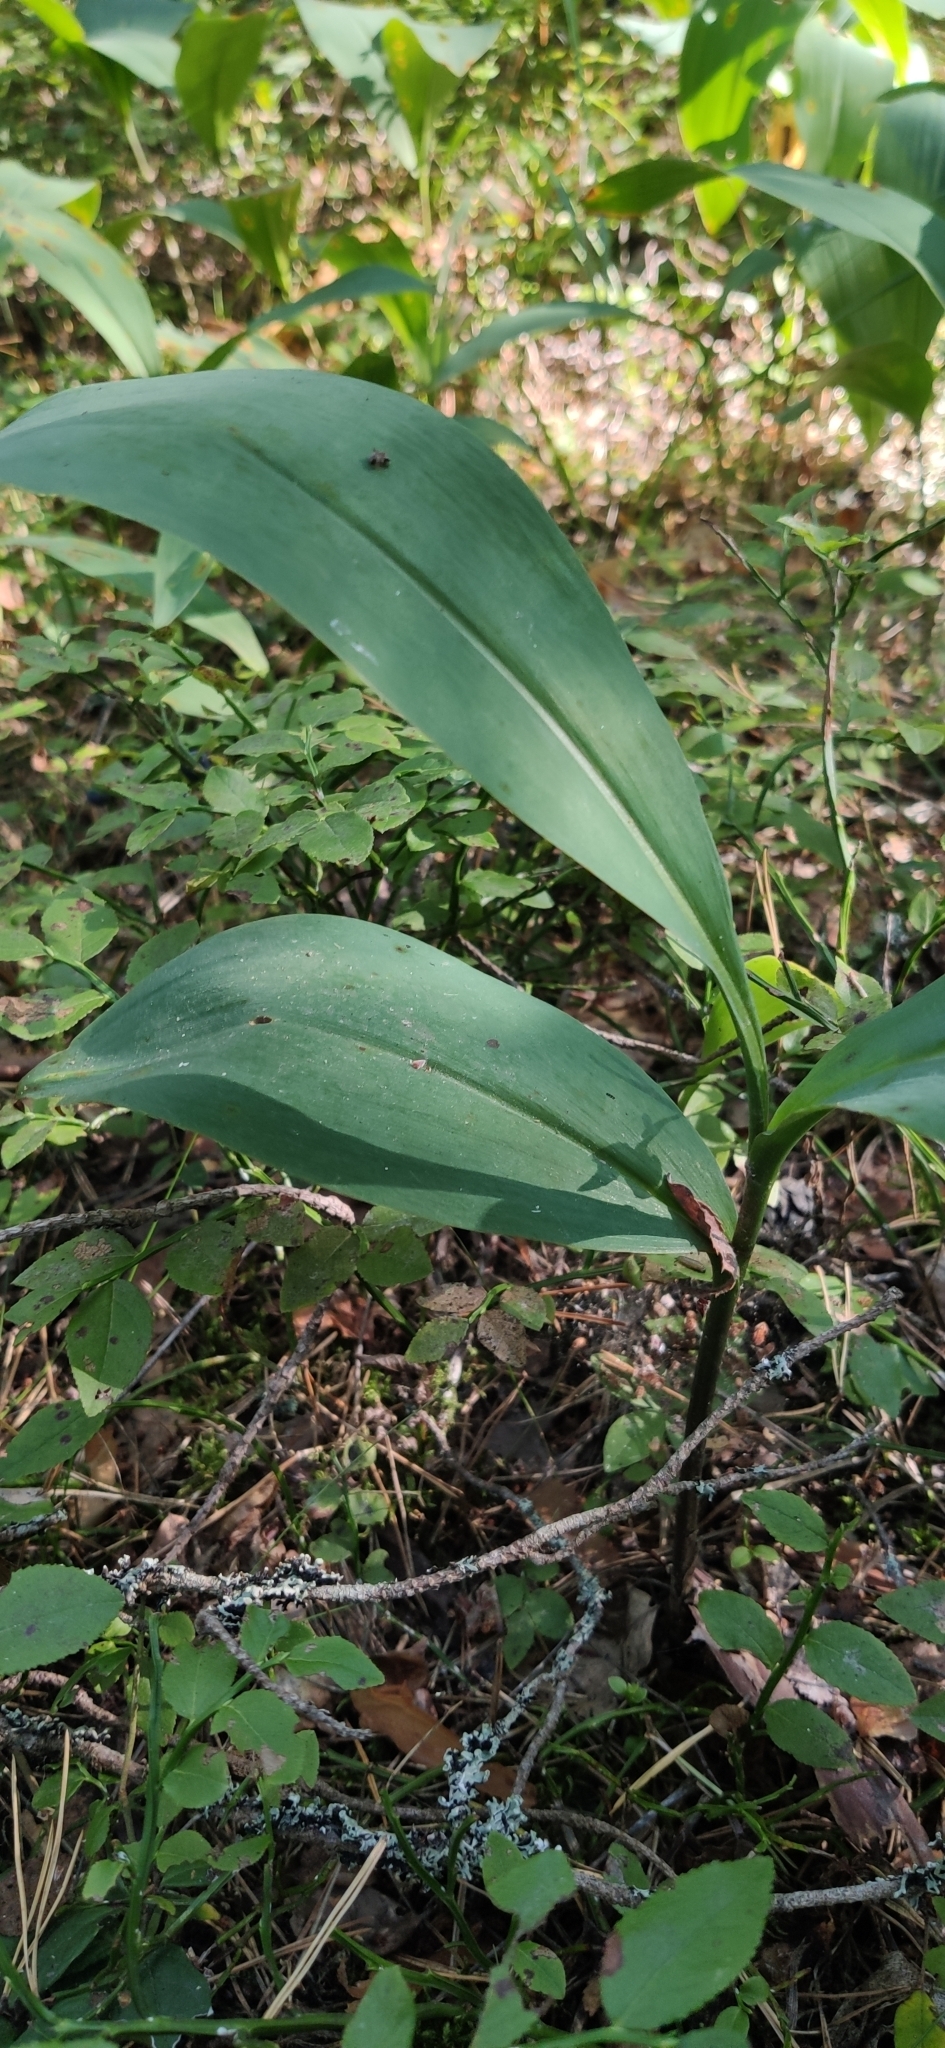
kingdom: Plantae
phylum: Tracheophyta
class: Liliopsida
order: Asparagales
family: Asparagaceae
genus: Convallaria
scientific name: Convallaria majalis
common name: Lily-of-the-valley
